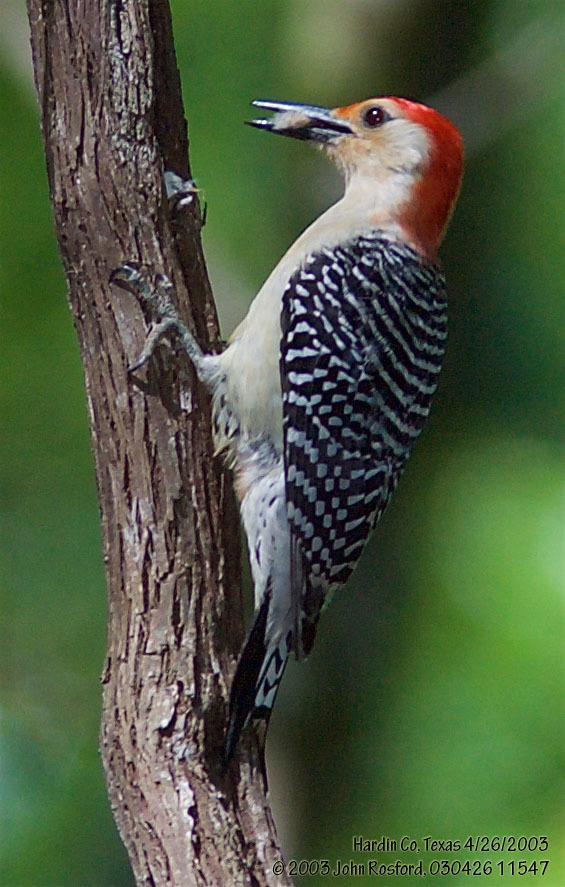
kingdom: Animalia
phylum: Chordata
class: Aves
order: Piciformes
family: Picidae
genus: Melanerpes
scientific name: Melanerpes carolinus
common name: Red-bellied woodpecker
